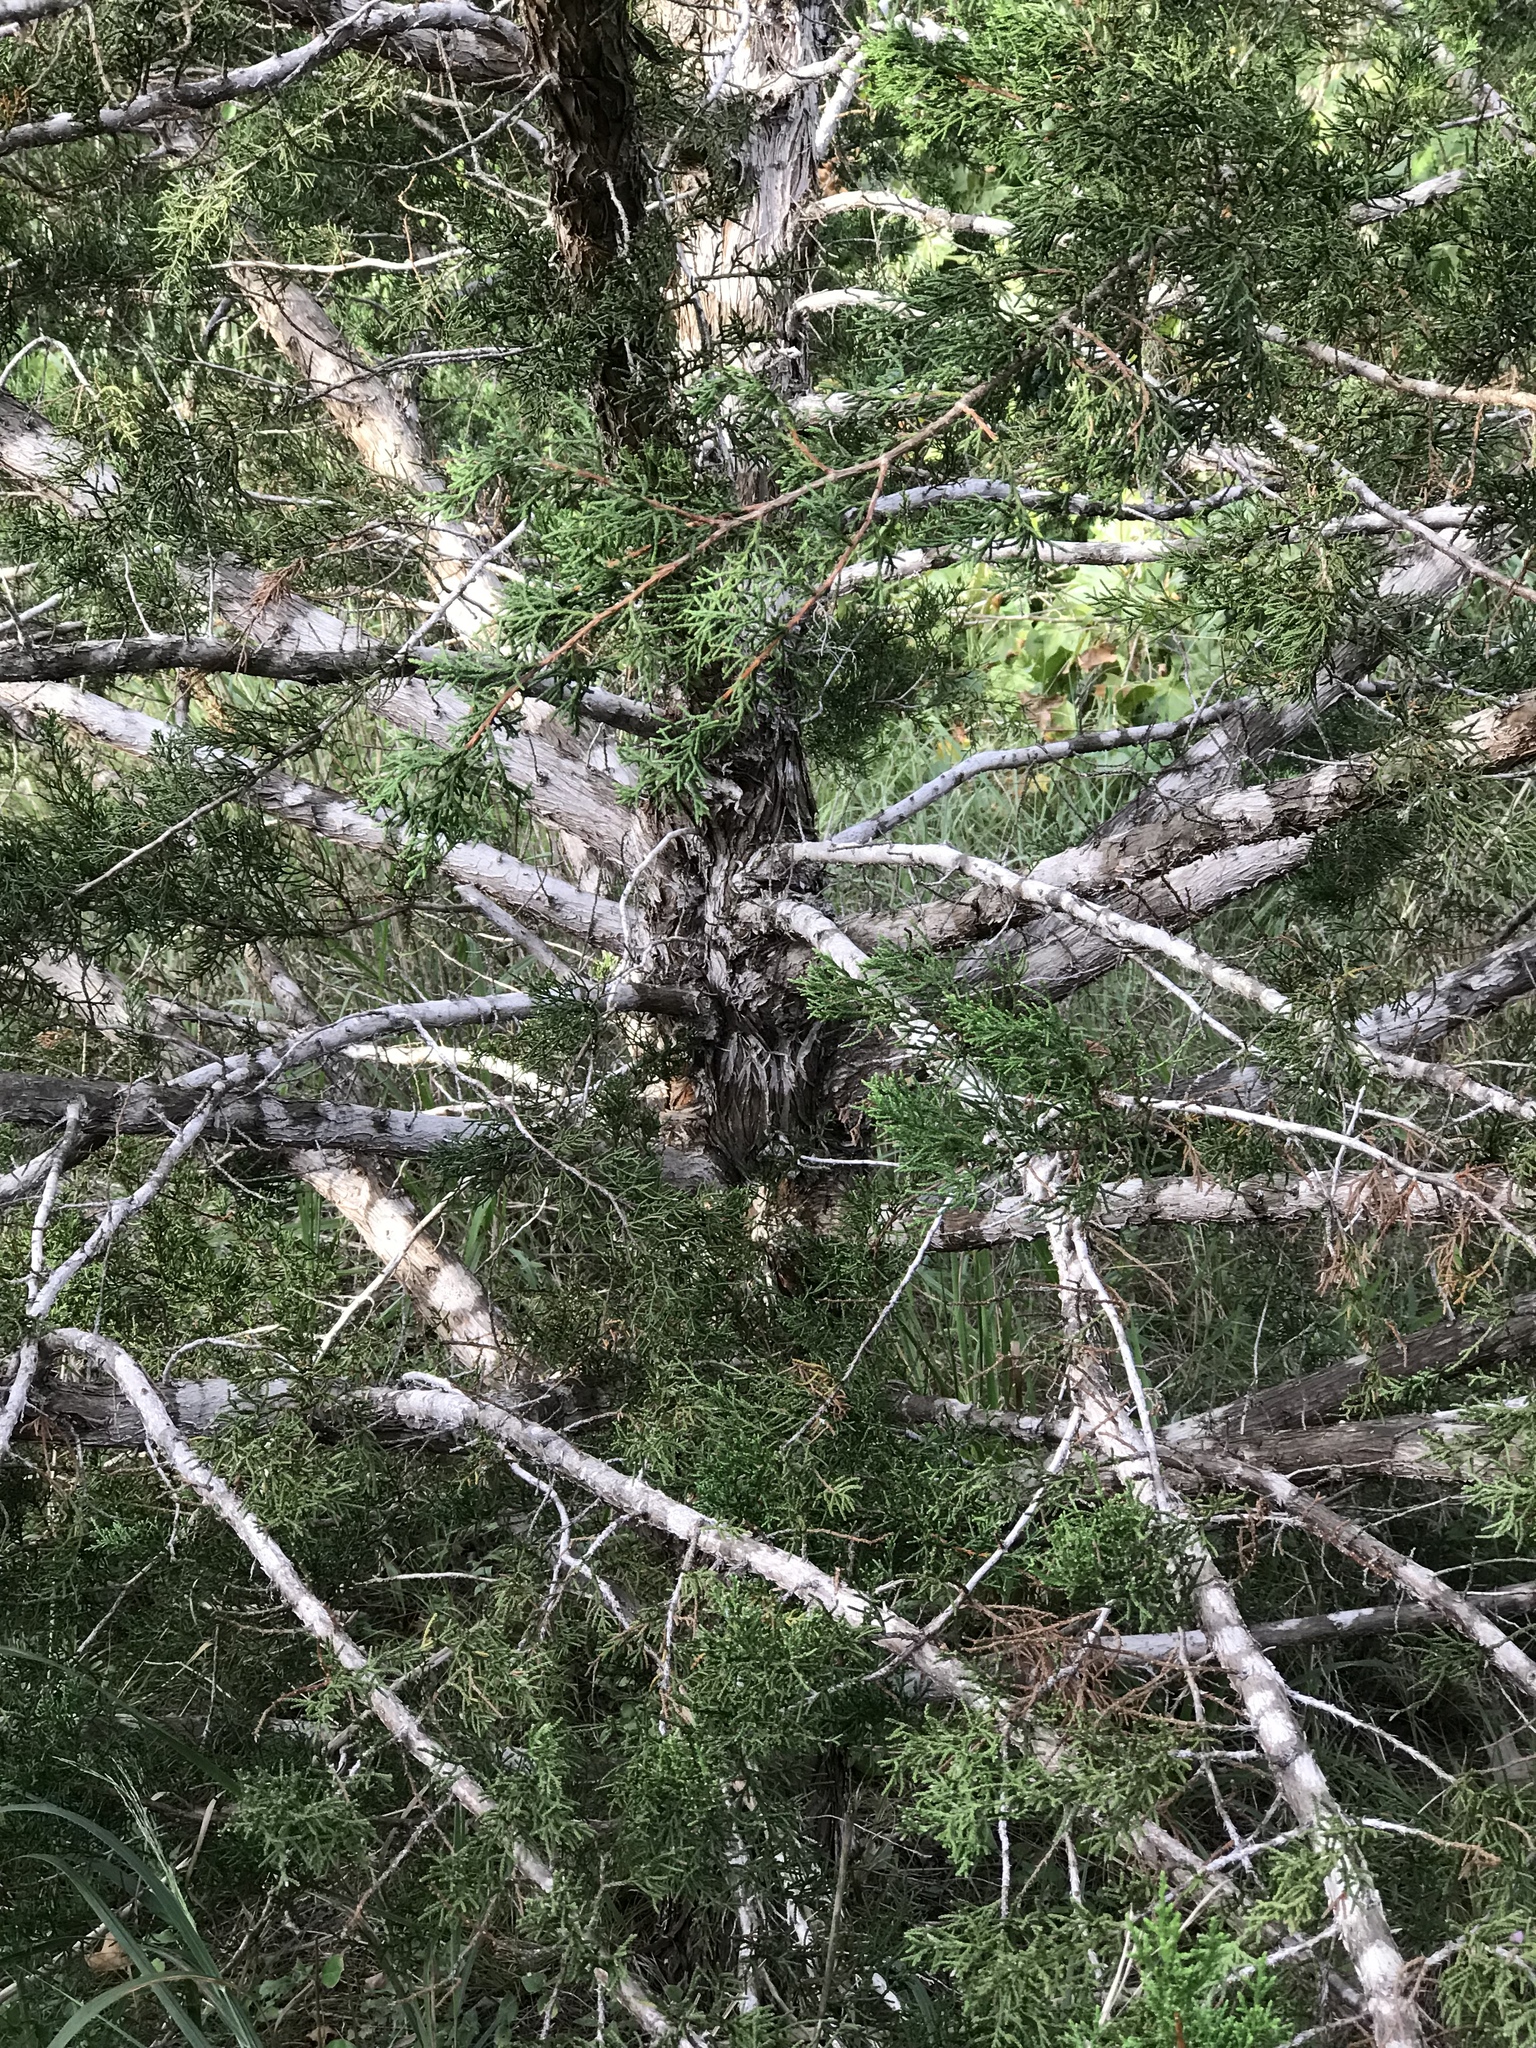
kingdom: Plantae
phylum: Tracheophyta
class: Pinopsida
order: Pinales
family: Cupressaceae
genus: Juniperus
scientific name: Juniperus ashei
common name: Mexican juniper
